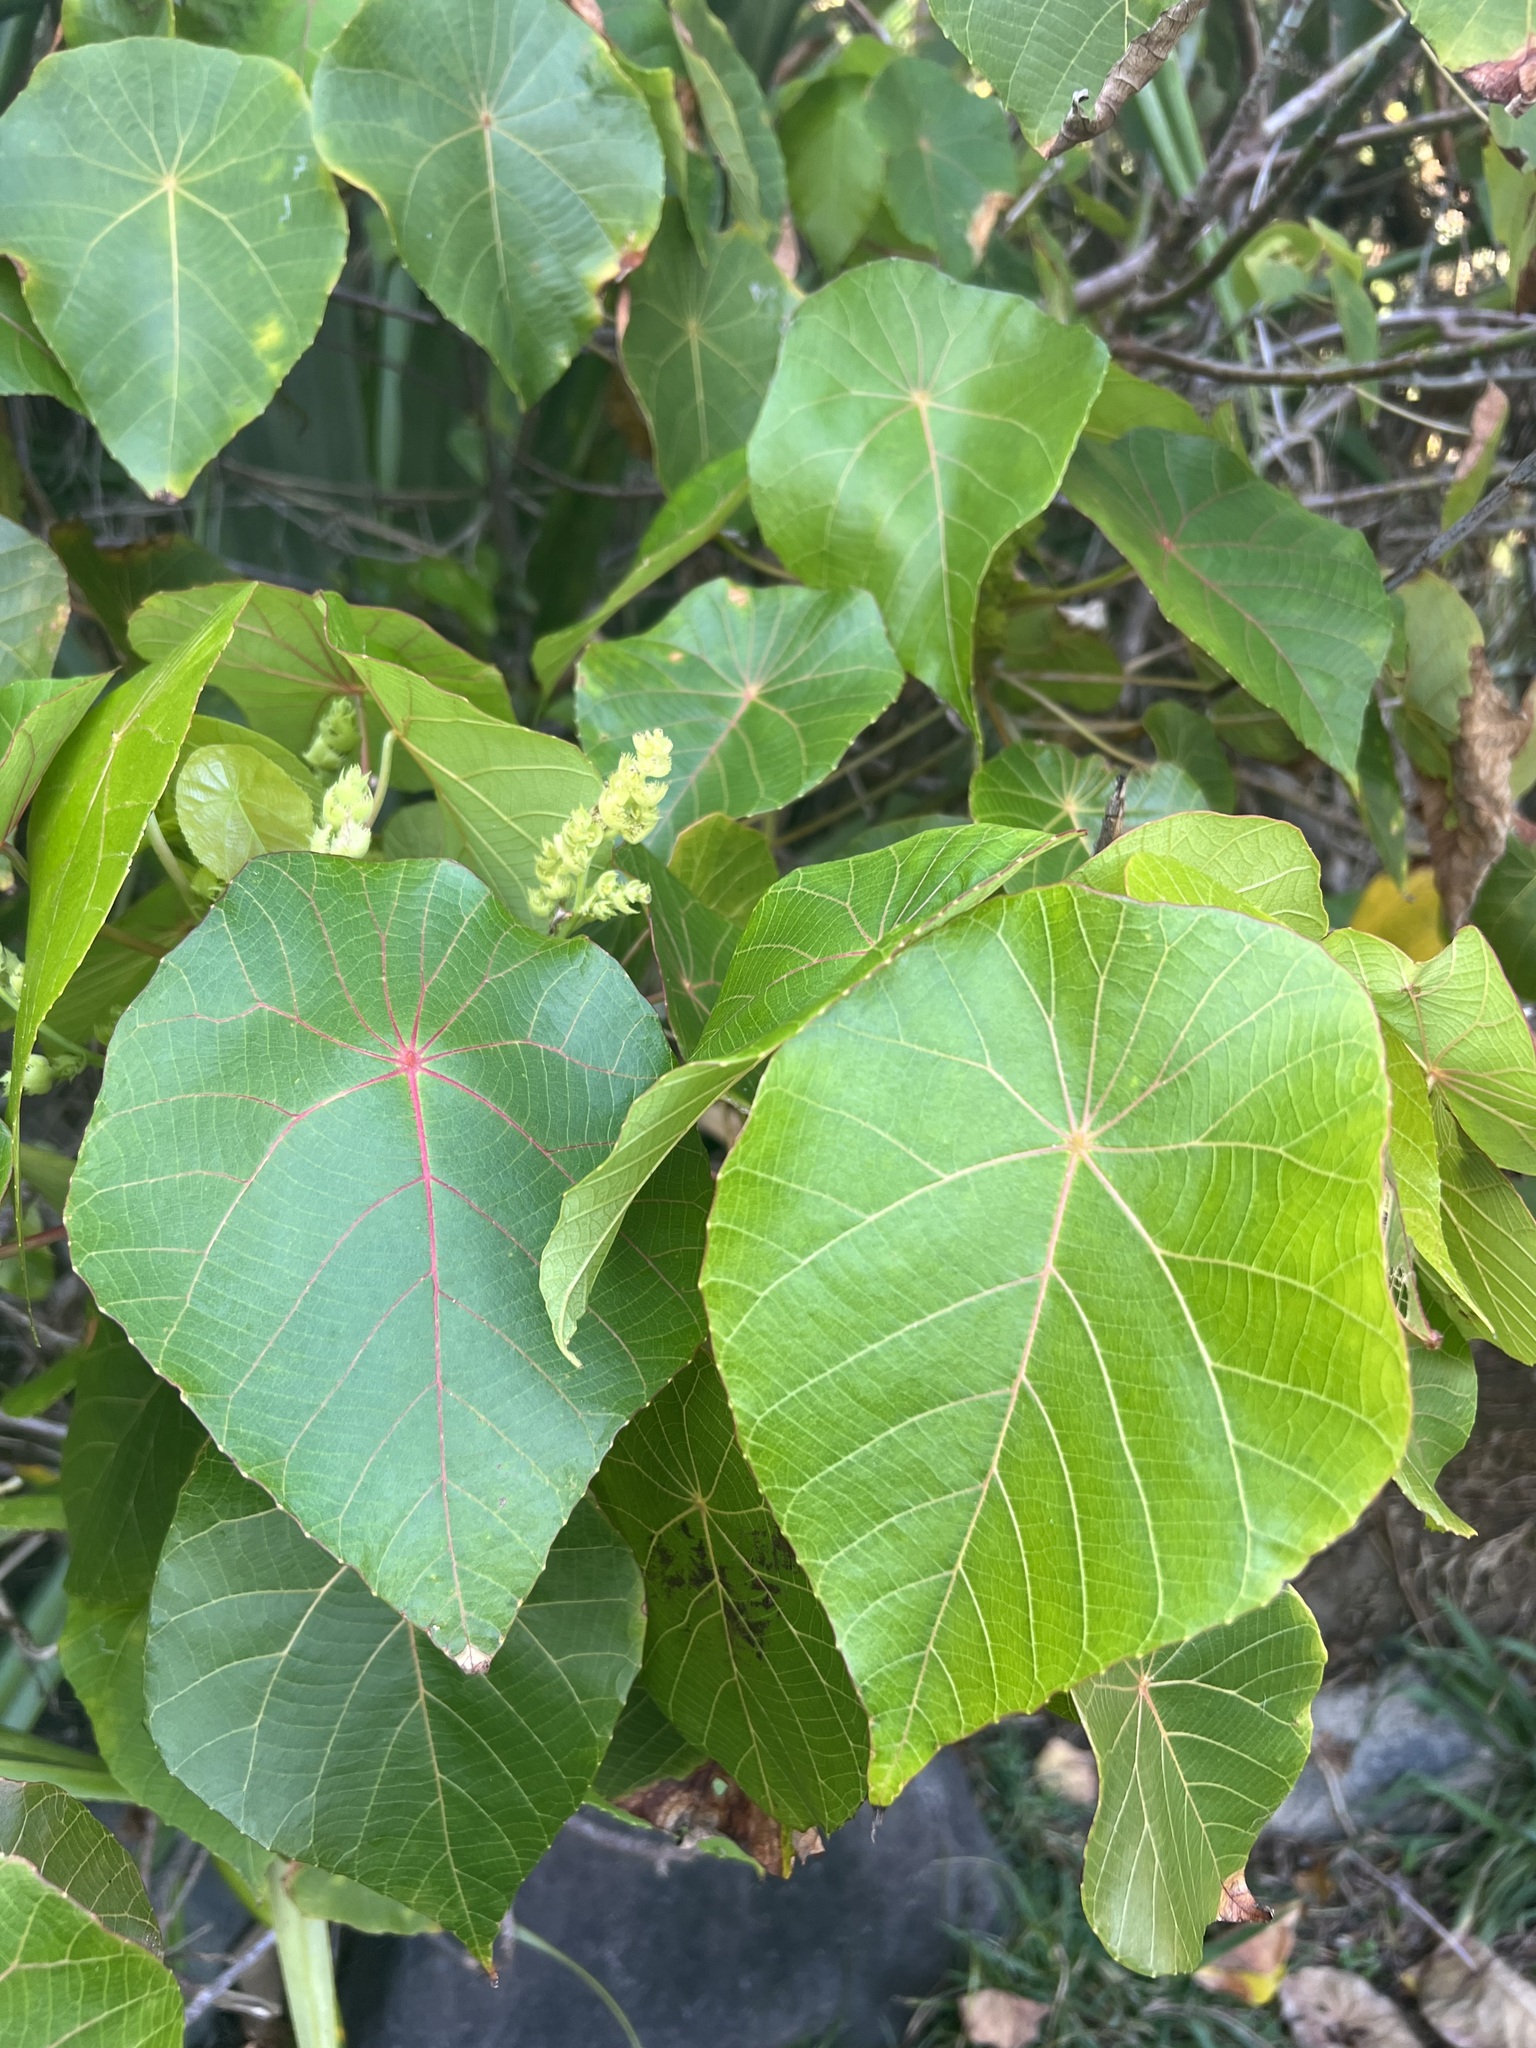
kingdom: Plantae
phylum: Tracheophyta
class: Magnoliopsida
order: Malpighiales
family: Euphorbiaceae
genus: Macaranga
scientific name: Macaranga tanarius
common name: Parasol leaf tree
